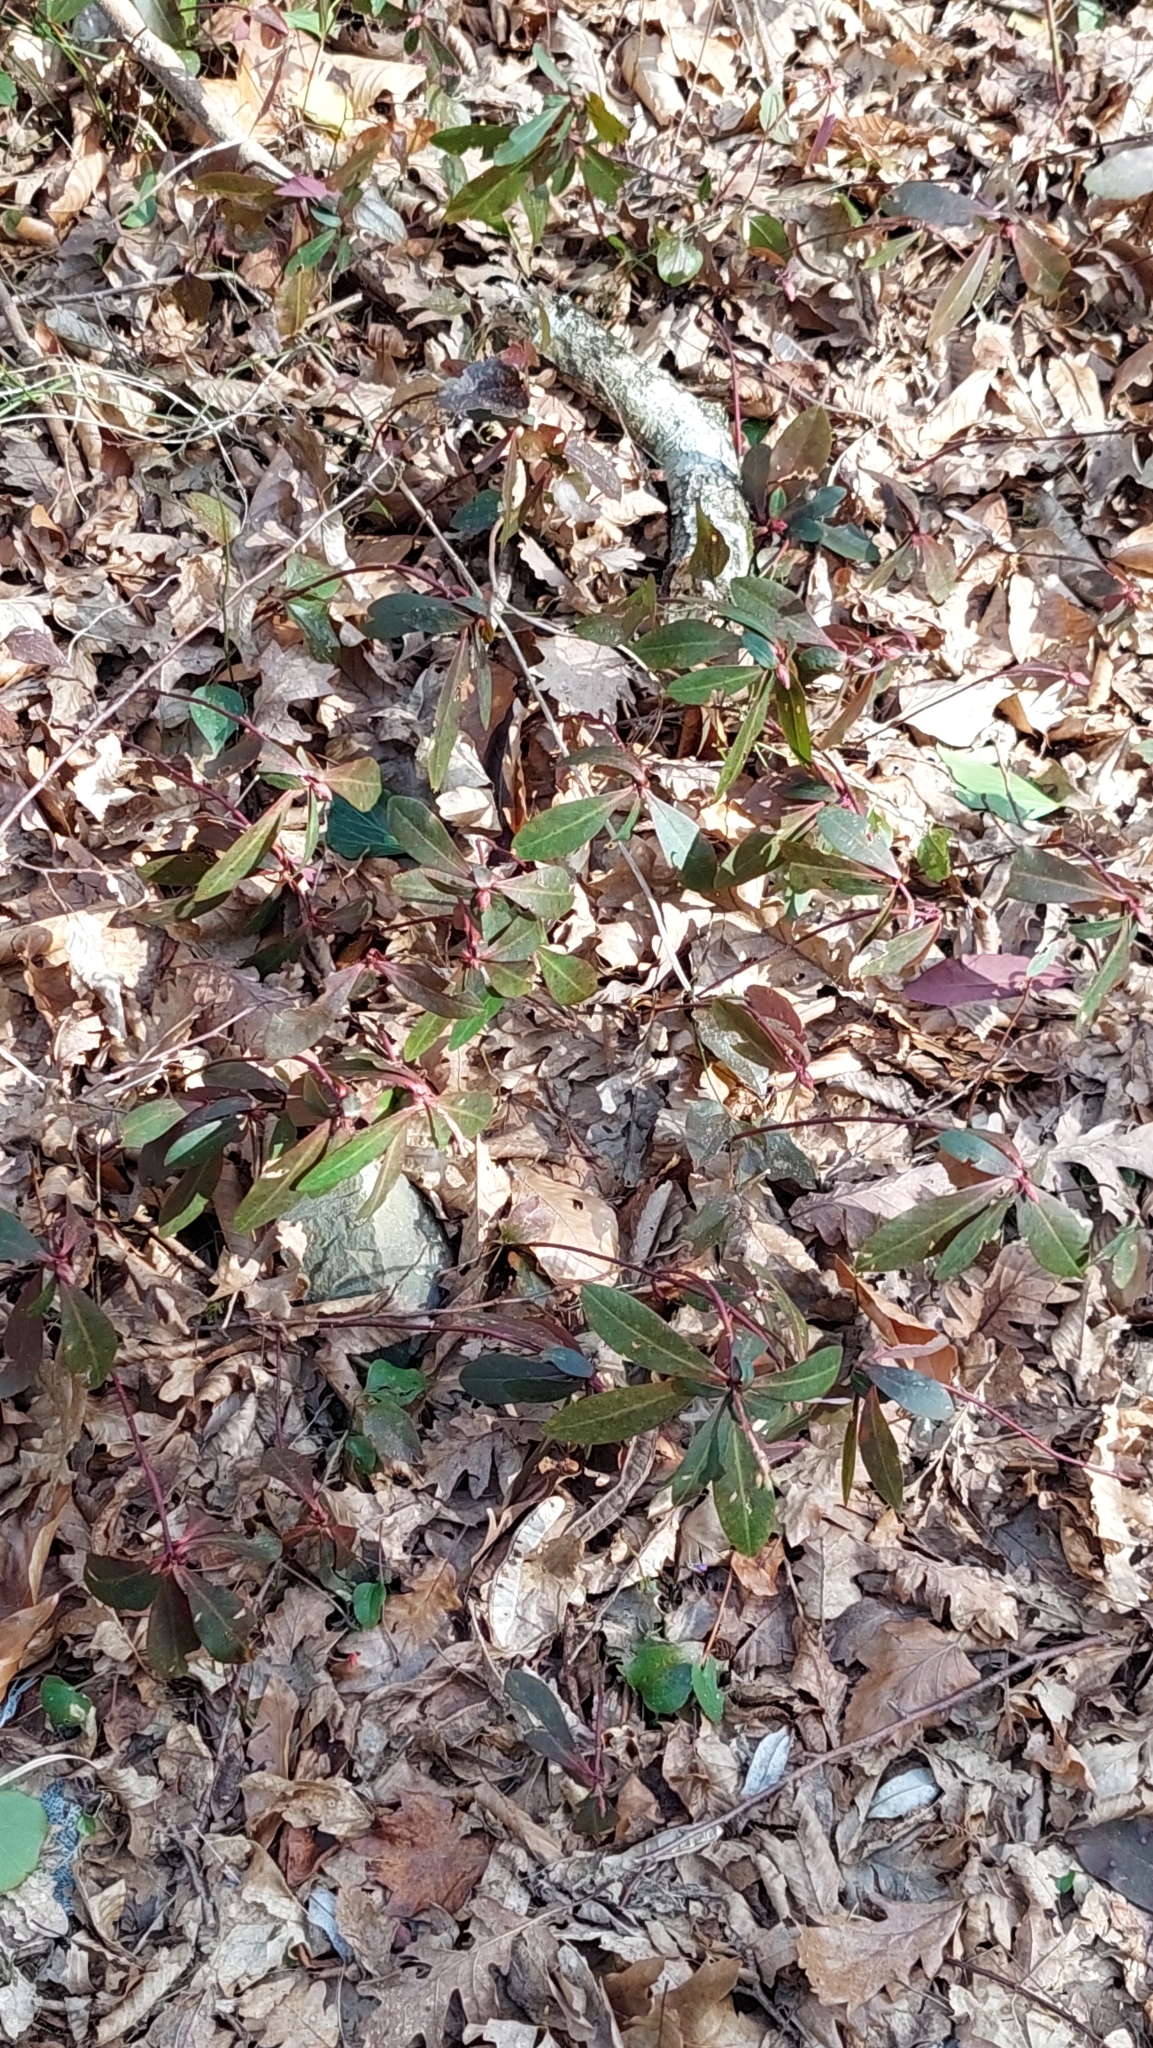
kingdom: Plantae
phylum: Tracheophyta
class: Magnoliopsida
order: Malpighiales
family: Euphorbiaceae
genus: Euphorbia
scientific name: Euphorbia amygdaloides
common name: Wood spurge
